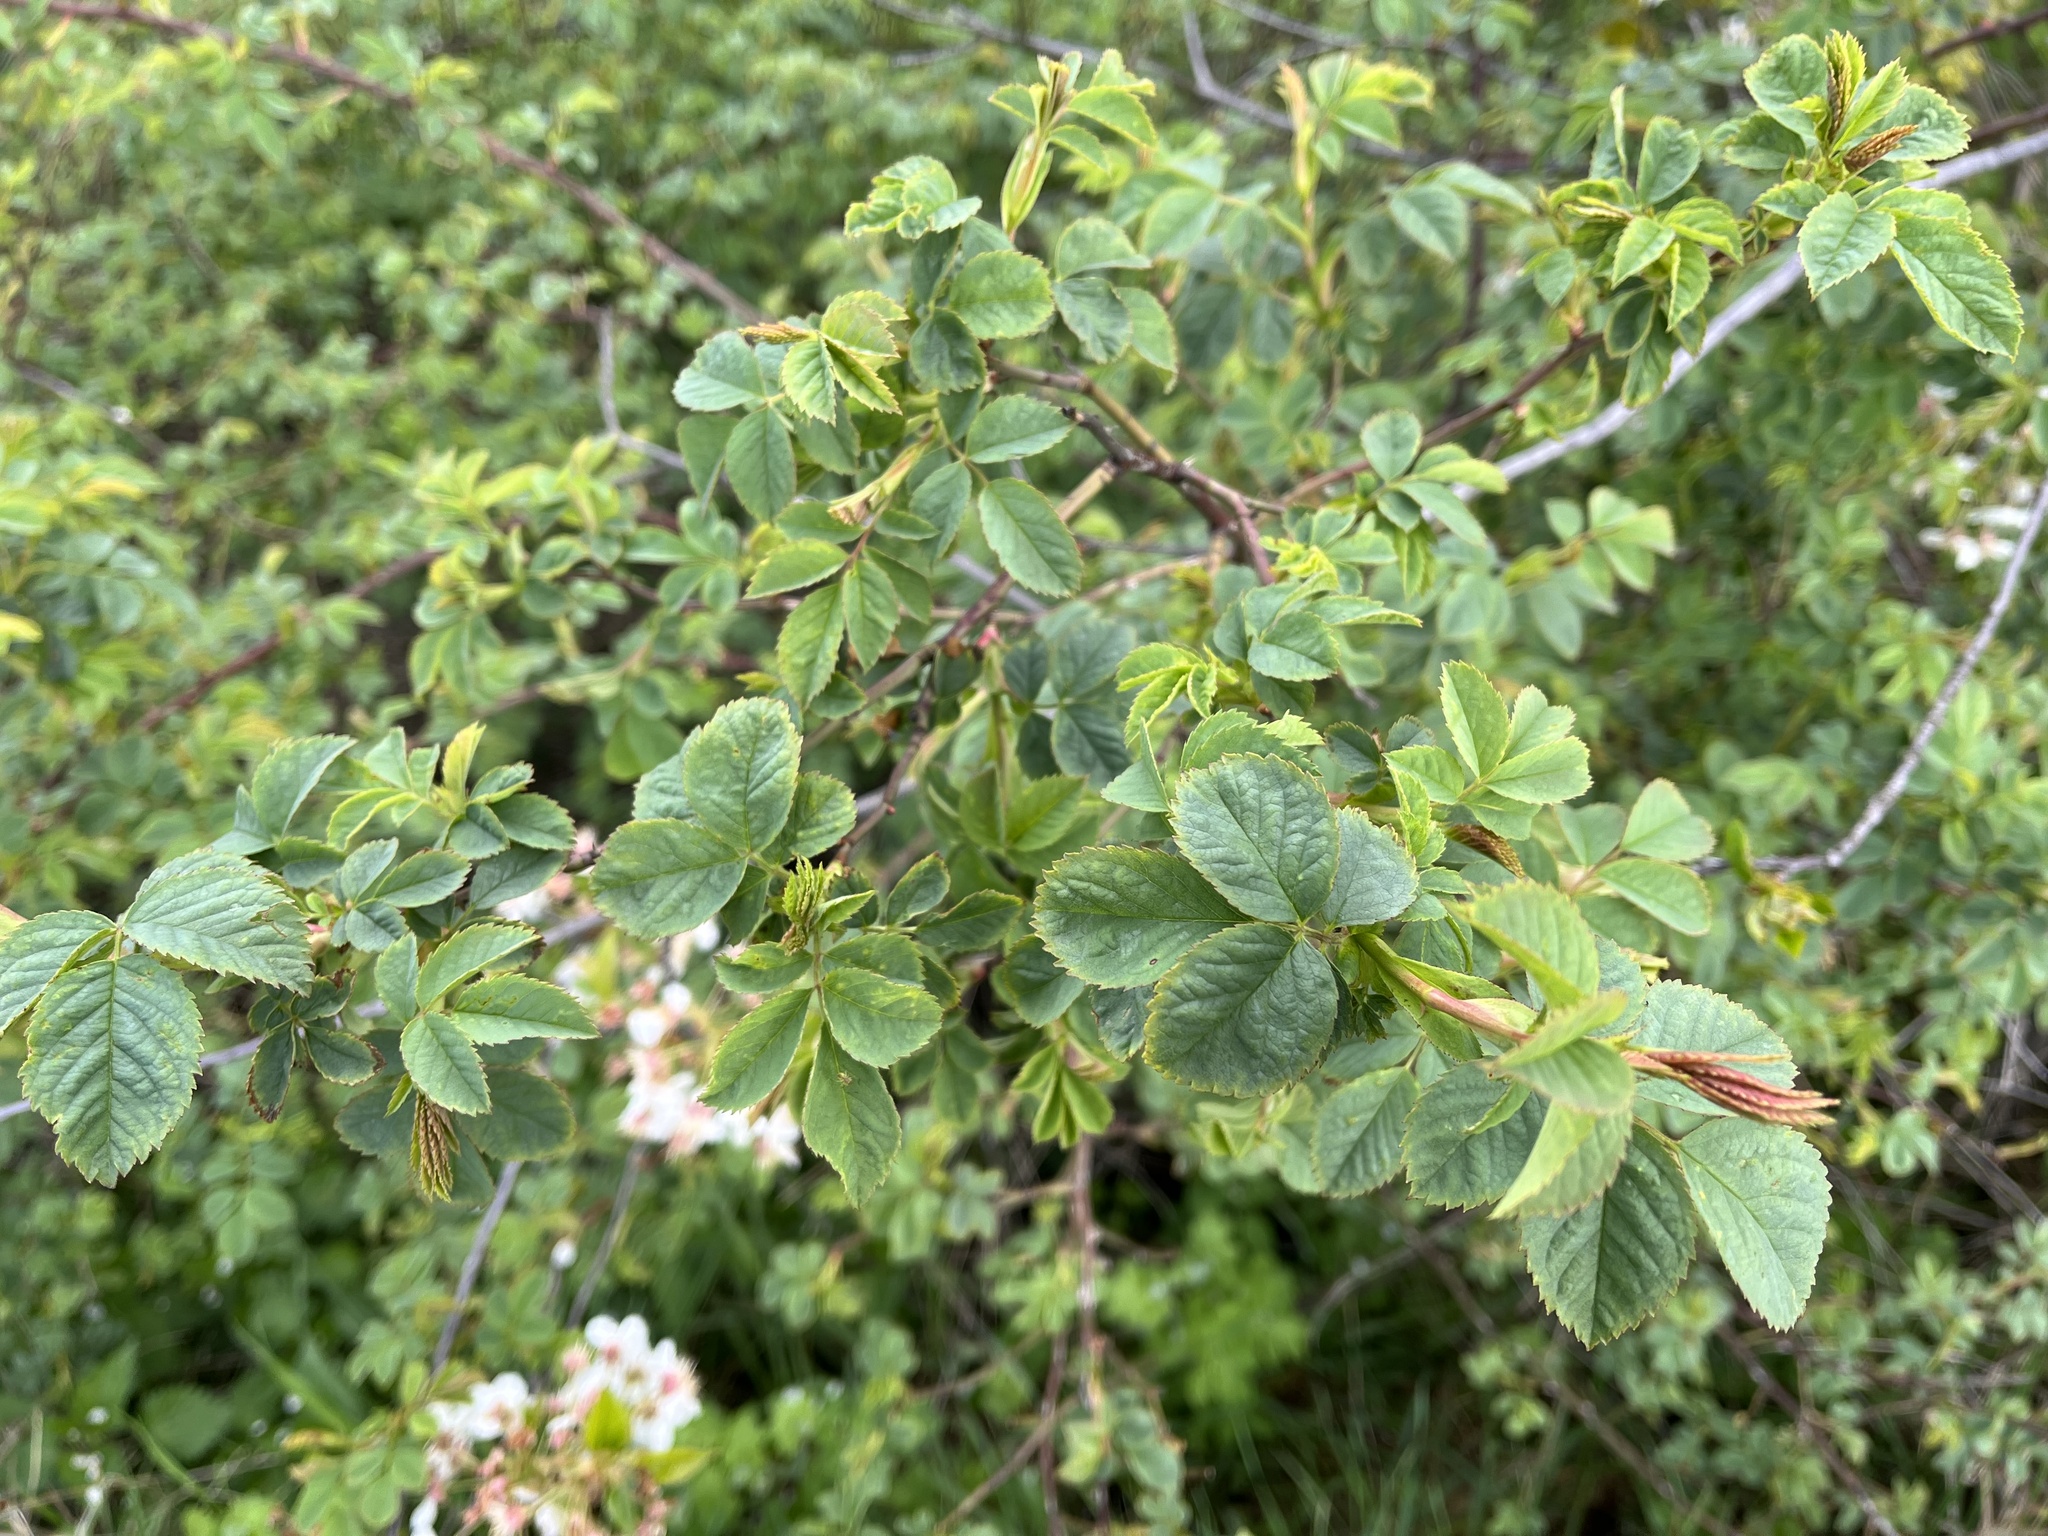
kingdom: Plantae
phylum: Tracheophyta
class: Magnoliopsida
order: Rosales
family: Rosaceae
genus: Rosa
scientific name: Rosa canina
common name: Dog rose
